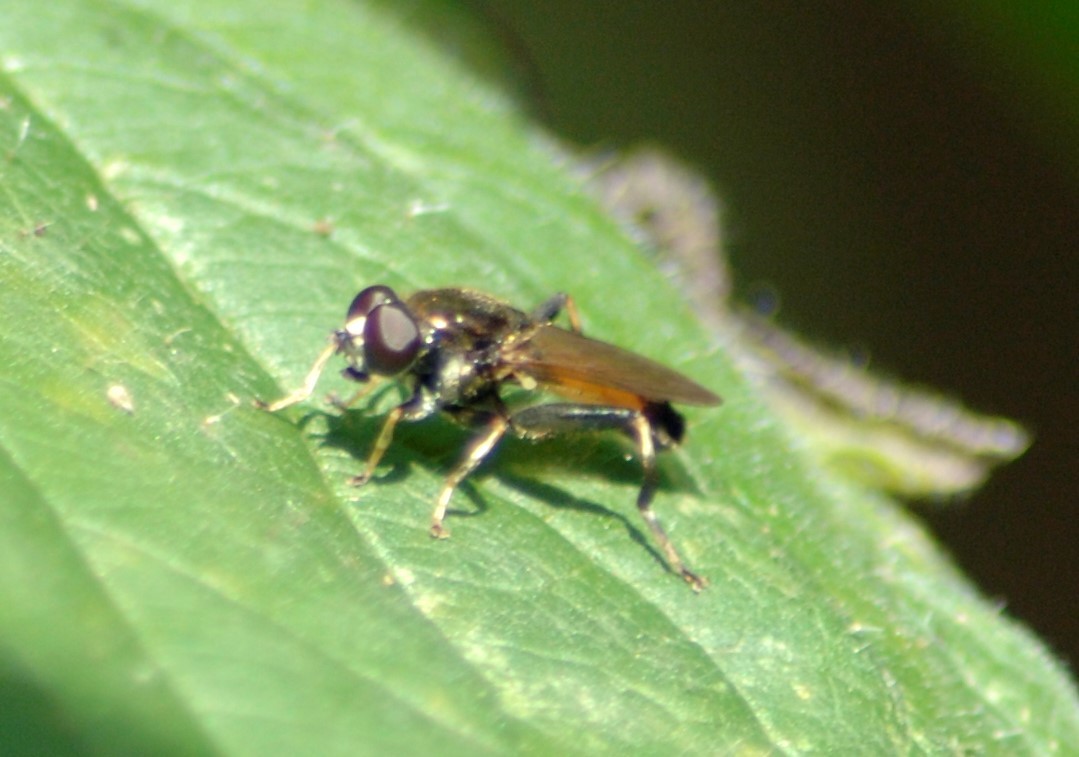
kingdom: Animalia
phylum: Arthropoda
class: Insecta
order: Diptera
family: Syrphidae
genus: Xylota
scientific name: Xylota segnis
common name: Brown-toed forest fly
